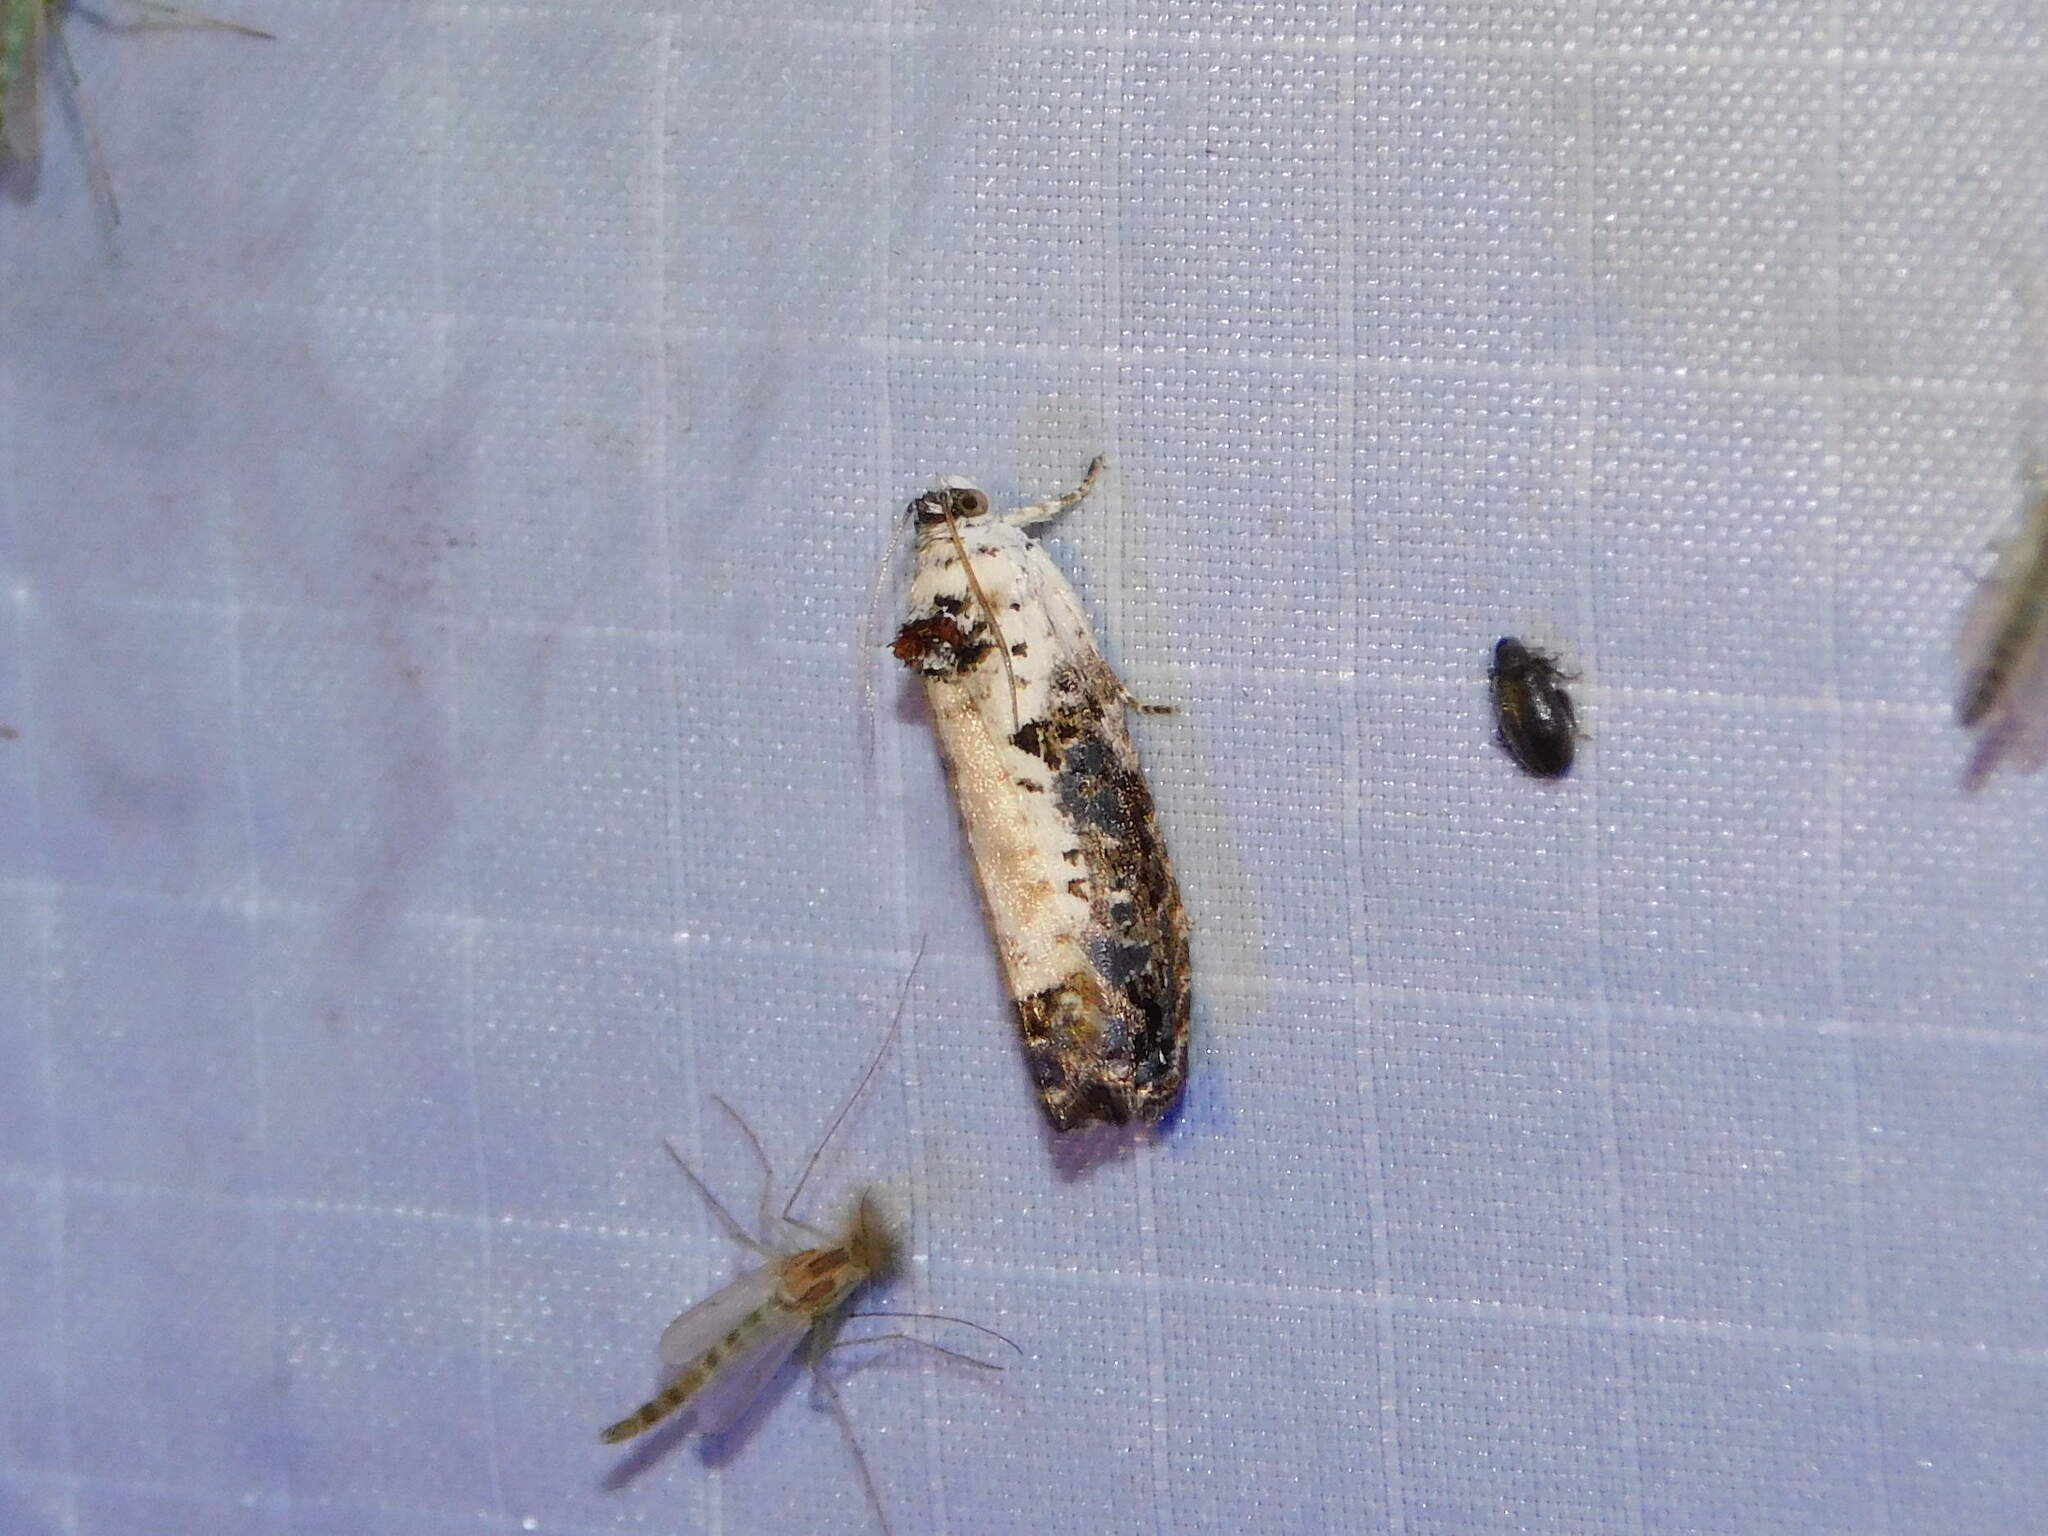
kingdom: Animalia
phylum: Arthropoda
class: Insecta
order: Lepidoptera
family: Tortricidae
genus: Hedya
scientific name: Hedya salicella
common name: Large tortricid moth
